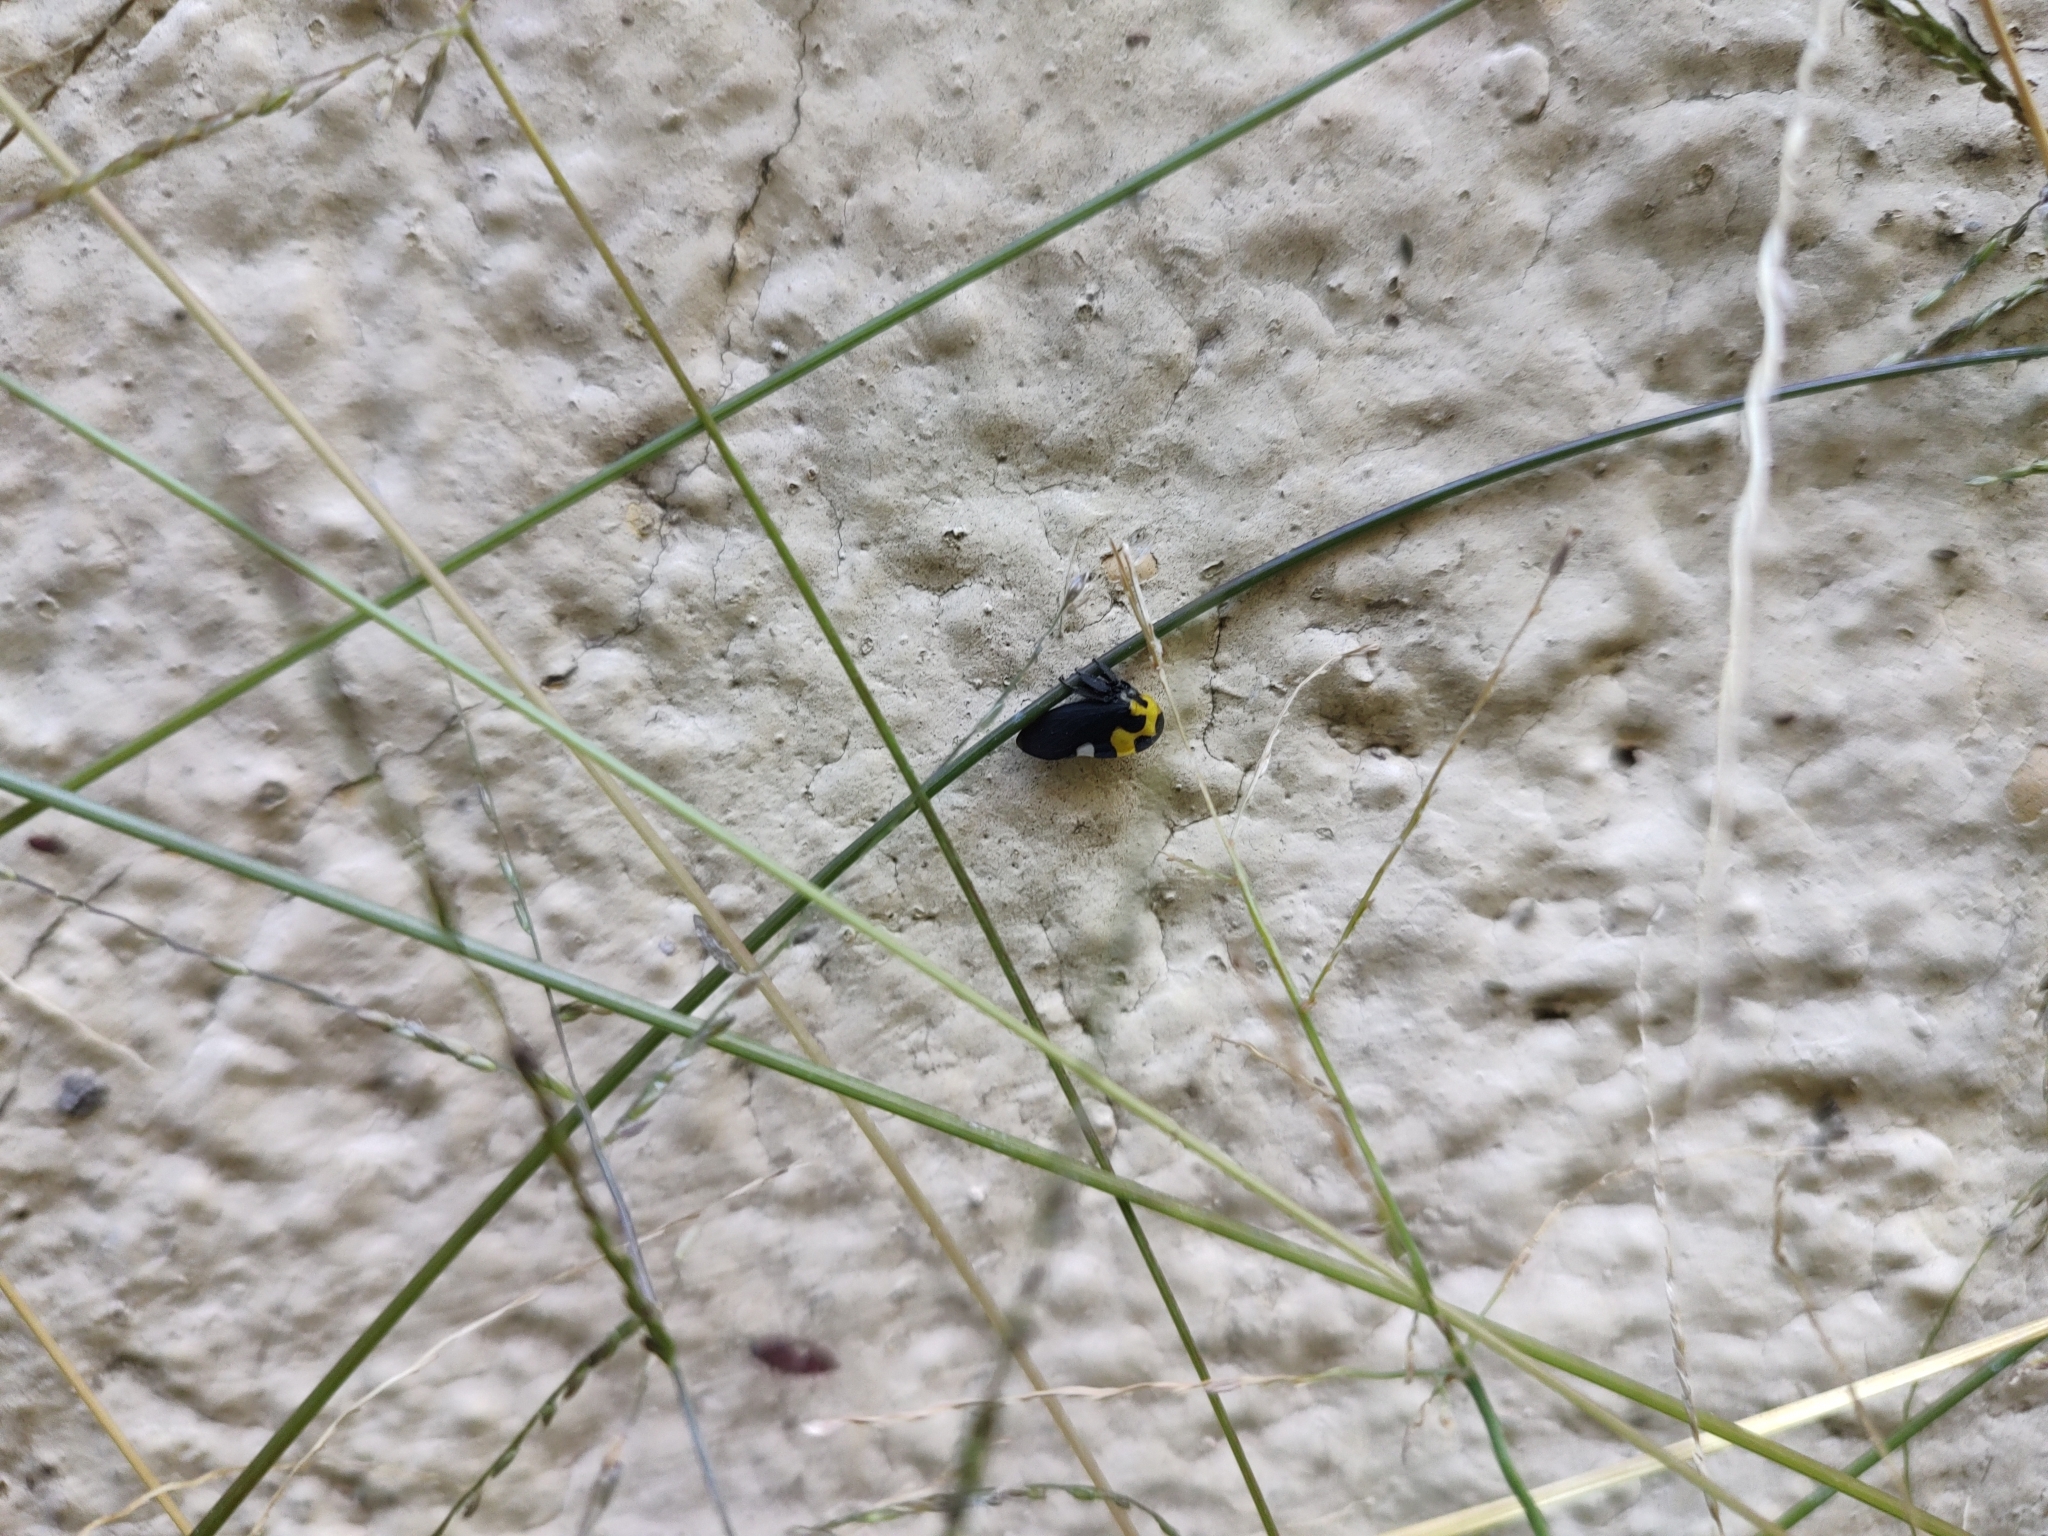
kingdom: Animalia
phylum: Arthropoda
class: Insecta
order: Hemiptera
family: Membracidae
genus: Membracis
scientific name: Membracis mexicana
